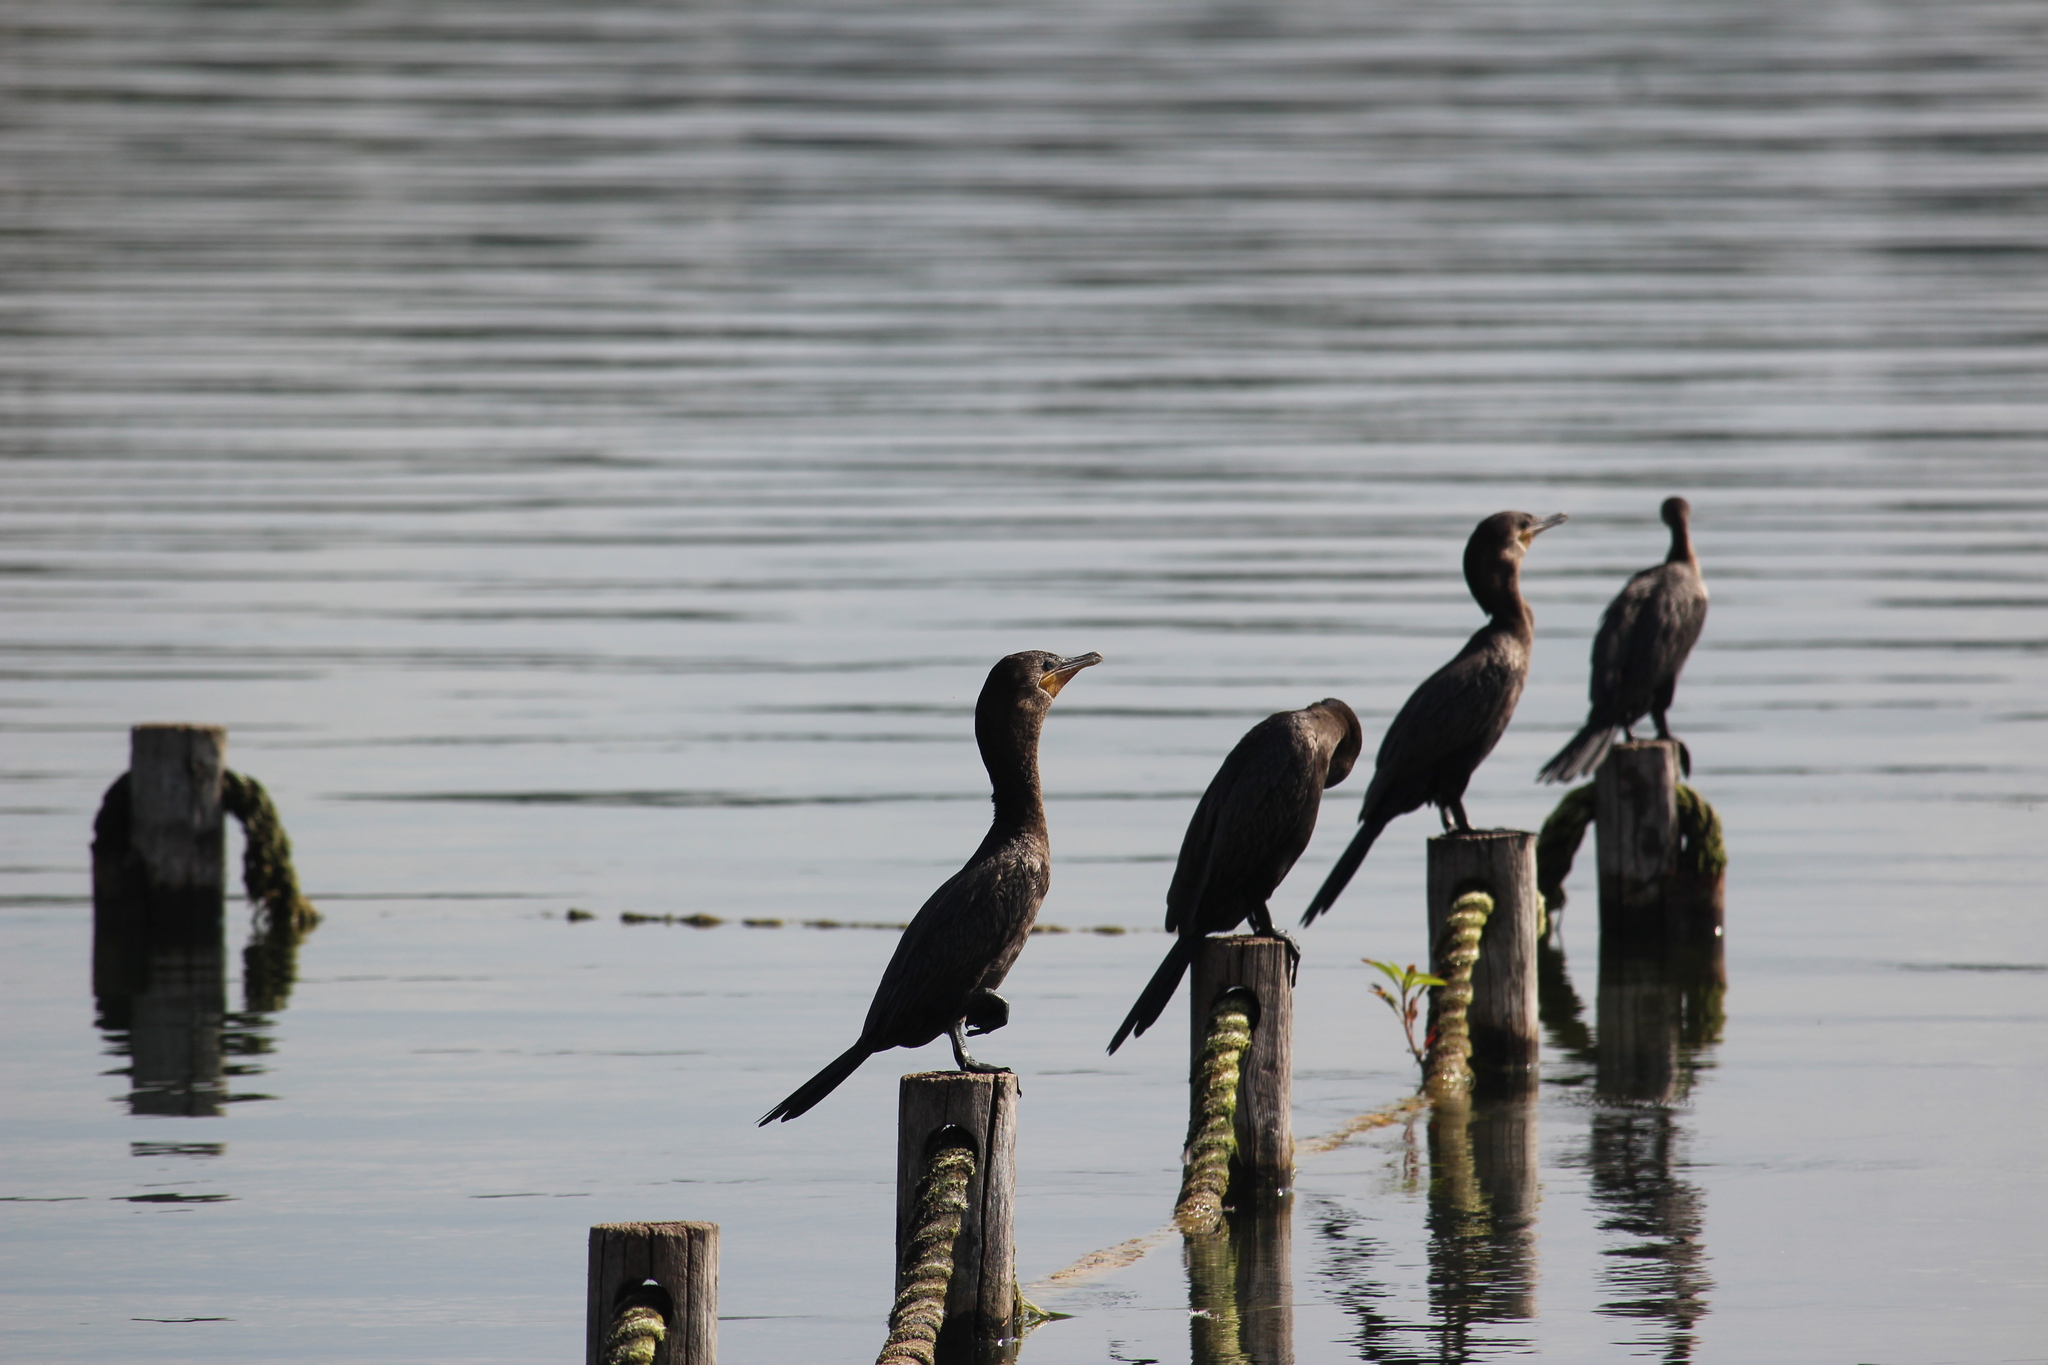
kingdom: Animalia
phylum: Chordata
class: Aves
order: Suliformes
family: Phalacrocoracidae
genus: Phalacrocorax
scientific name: Phalacrocorax brasilianus
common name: Neotropic cormorant
